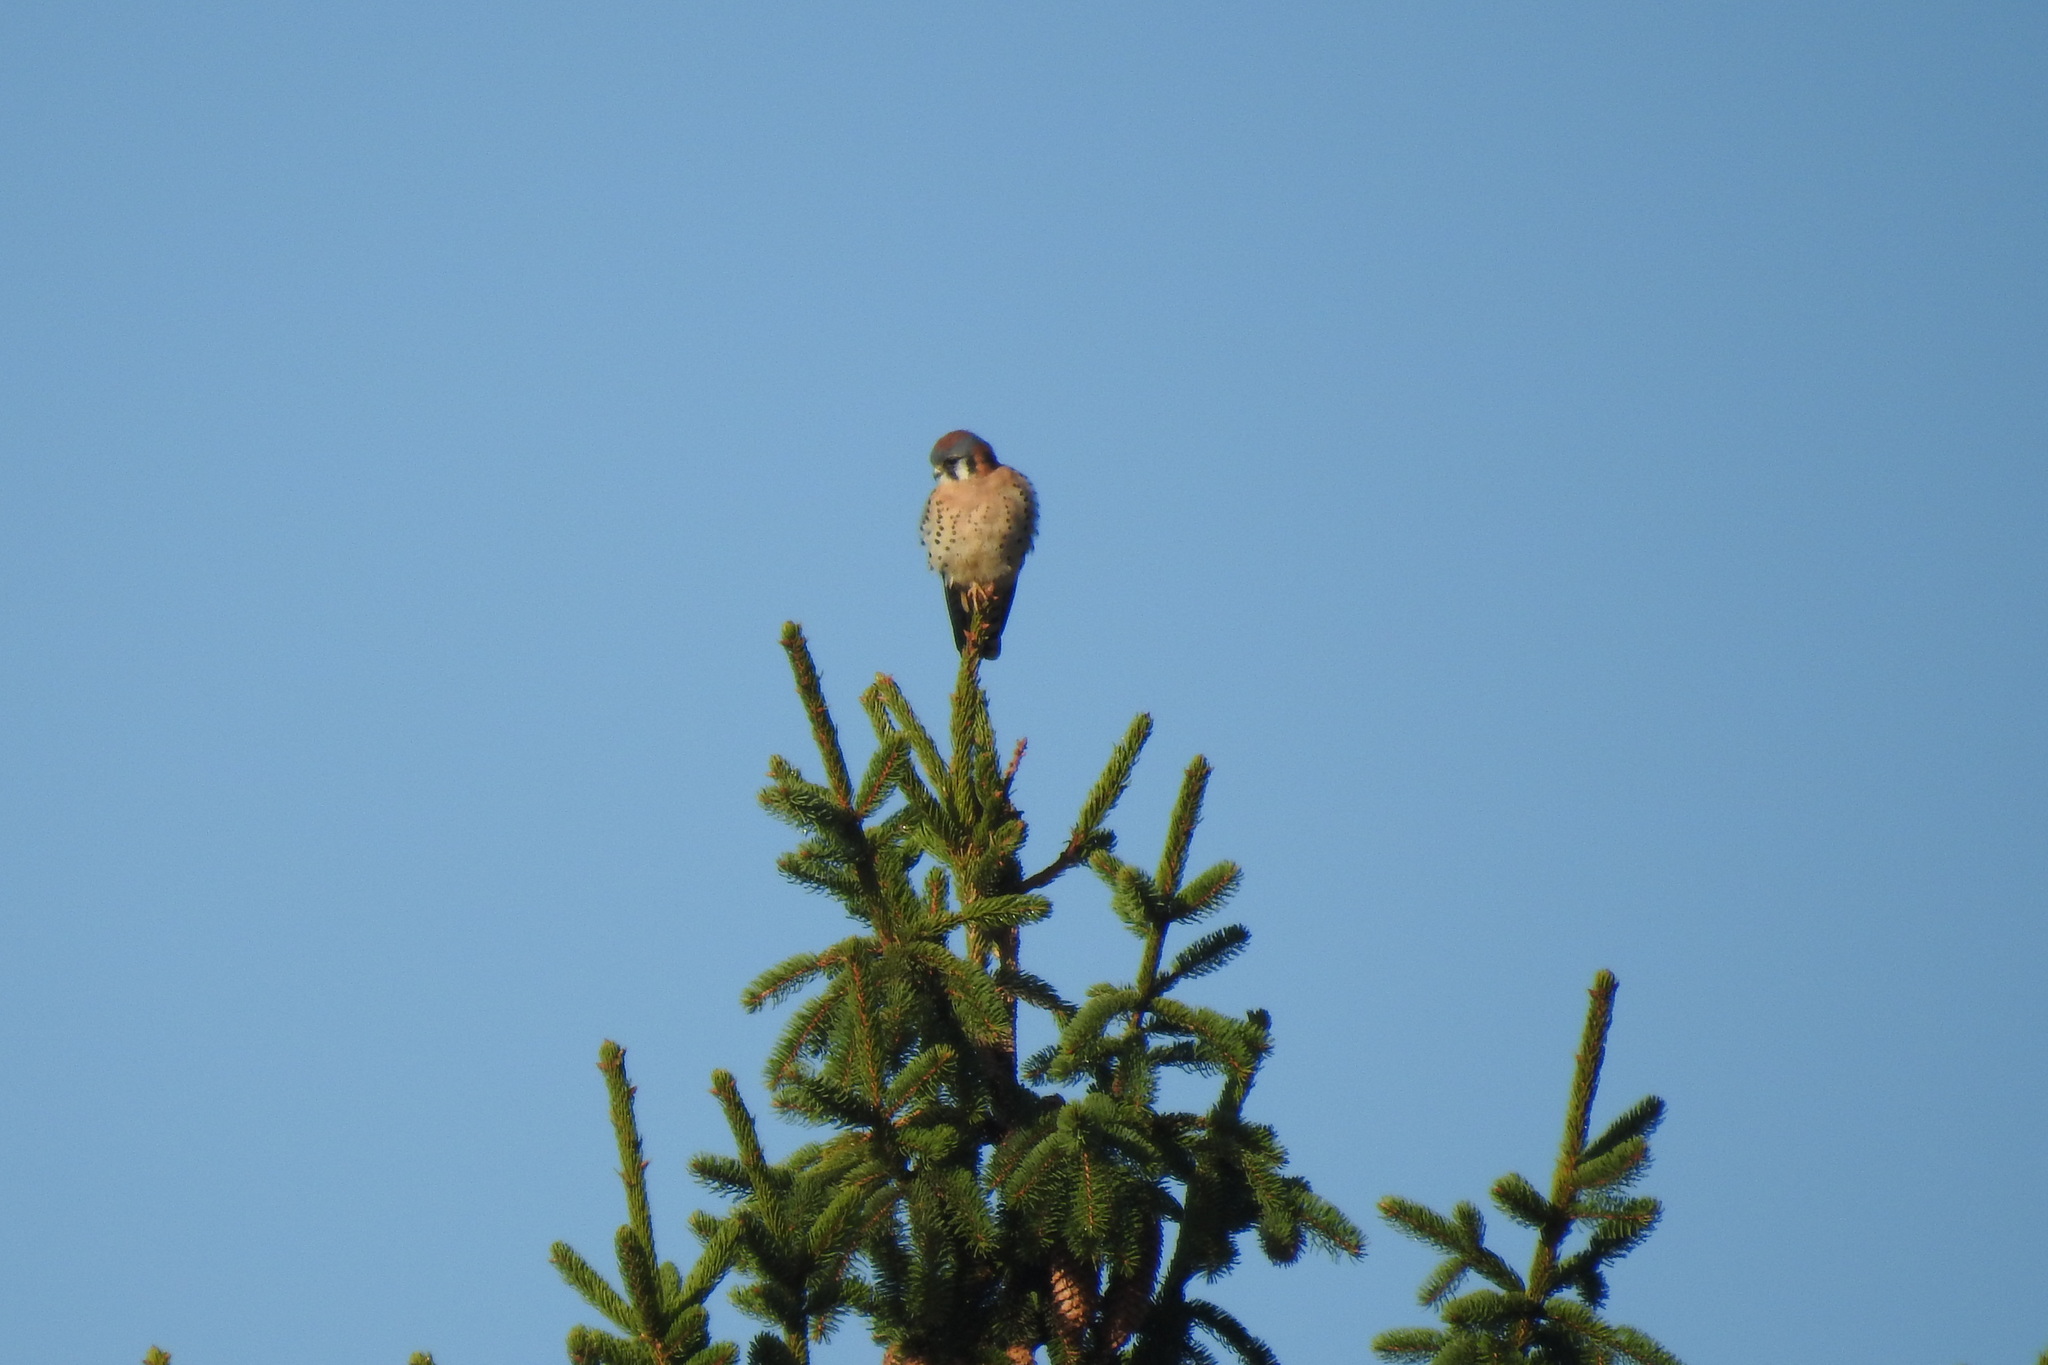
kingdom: Animalia
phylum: Chordata
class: Aves
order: Falconiformes
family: Falconidae
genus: Falco
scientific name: Falco sparverius
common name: American kestrel
